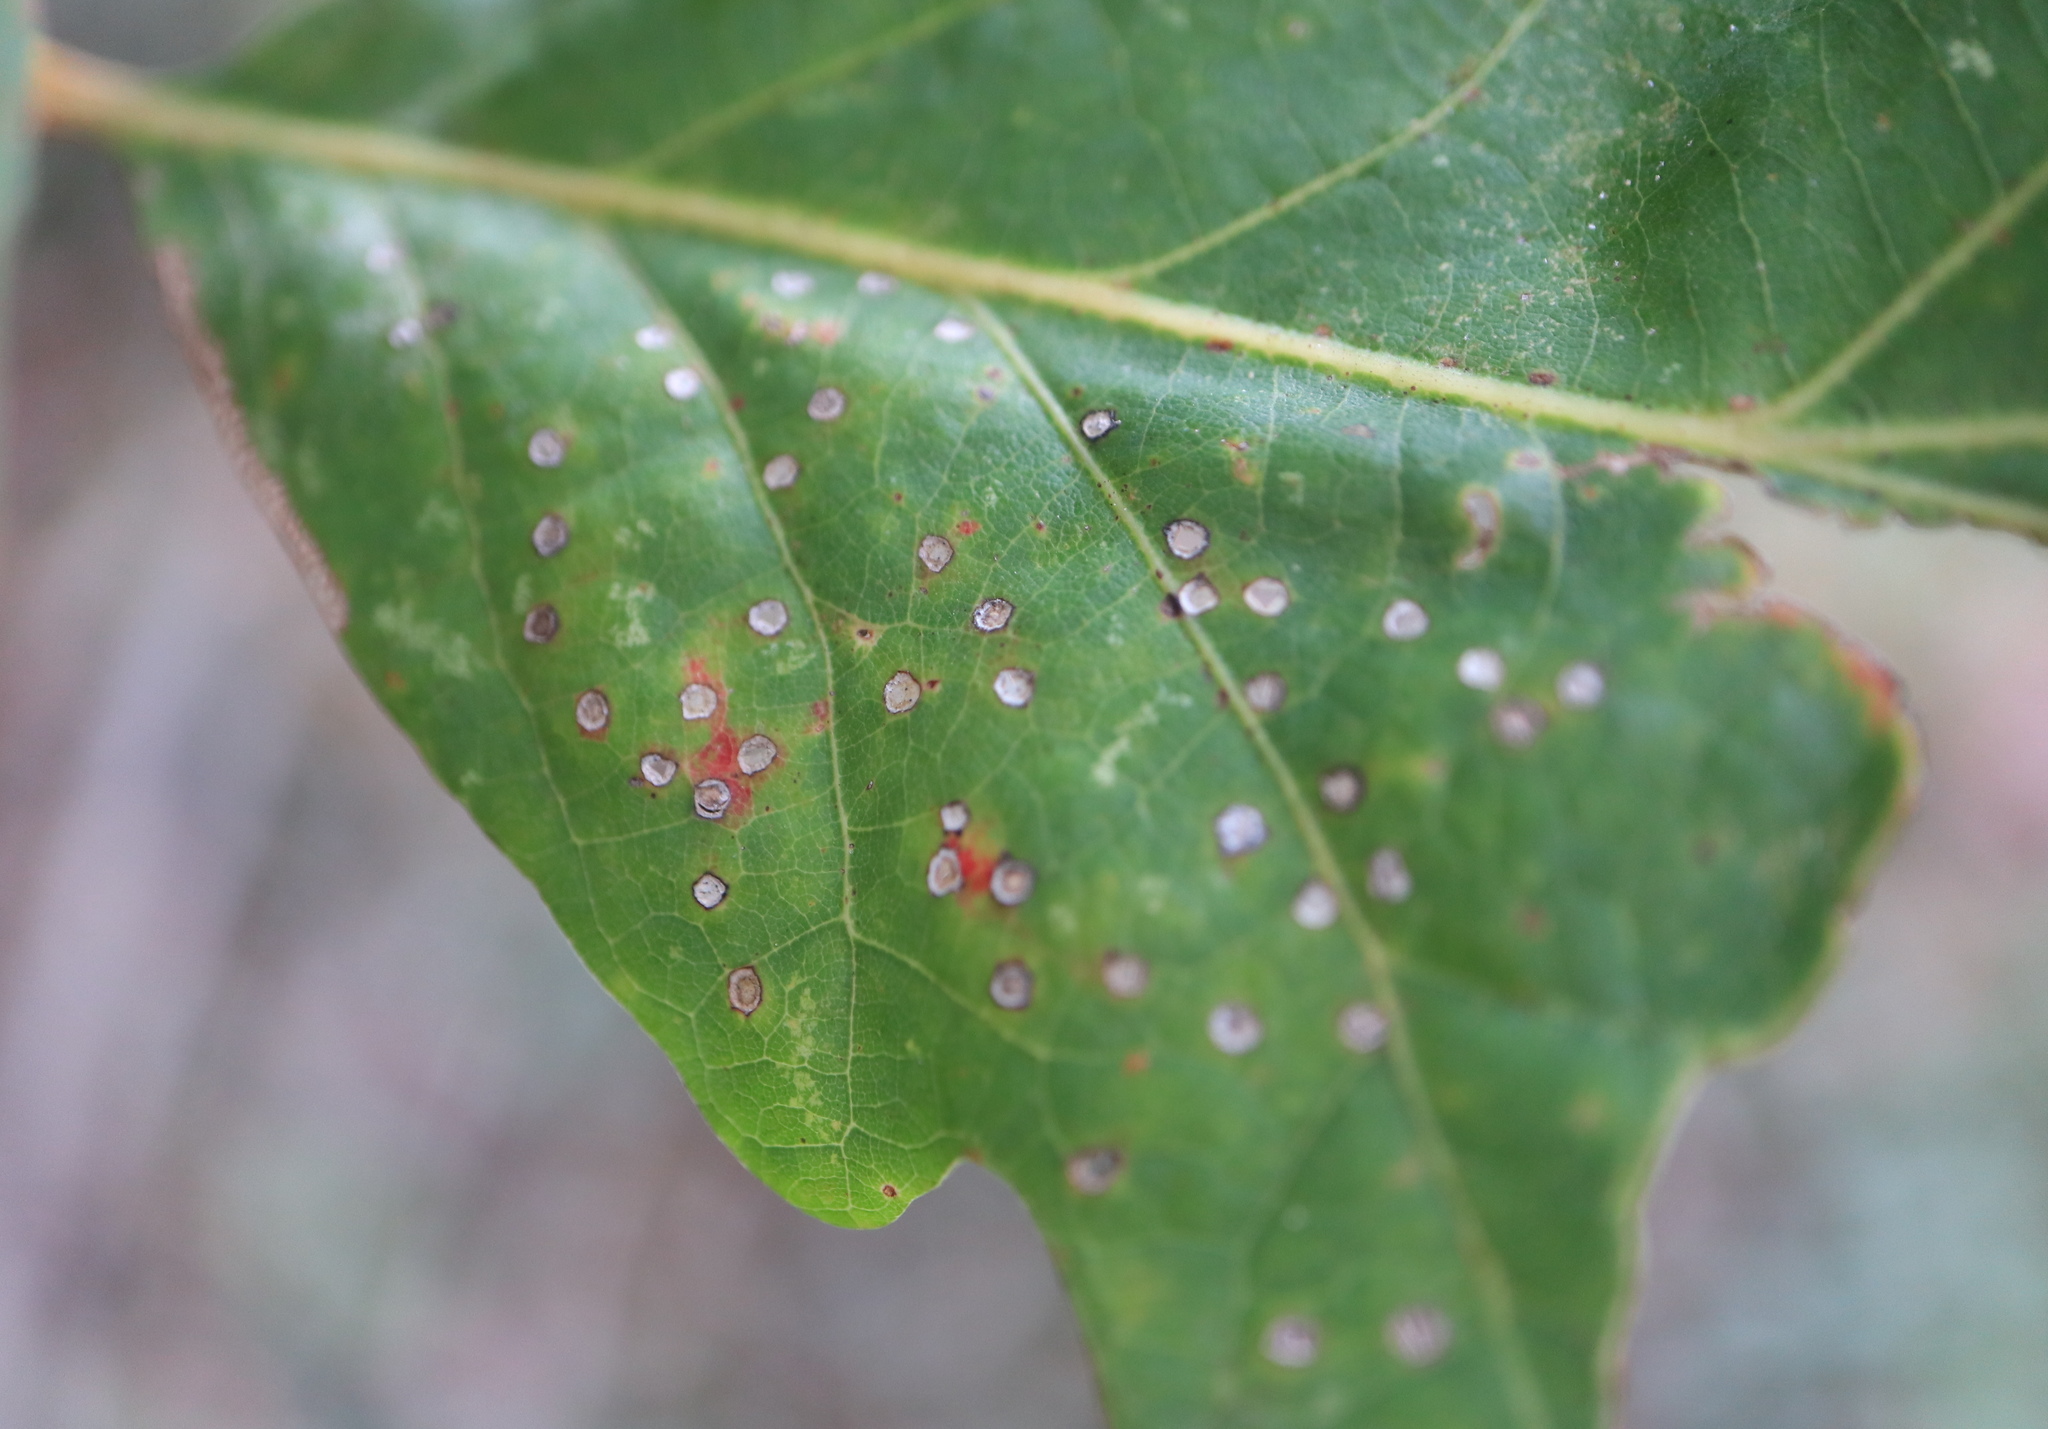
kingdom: Animalia
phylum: Arthropoda
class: Insecta
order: Hymenoptera
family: Cynipidae
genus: Neuroterus
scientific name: Neuroterus
